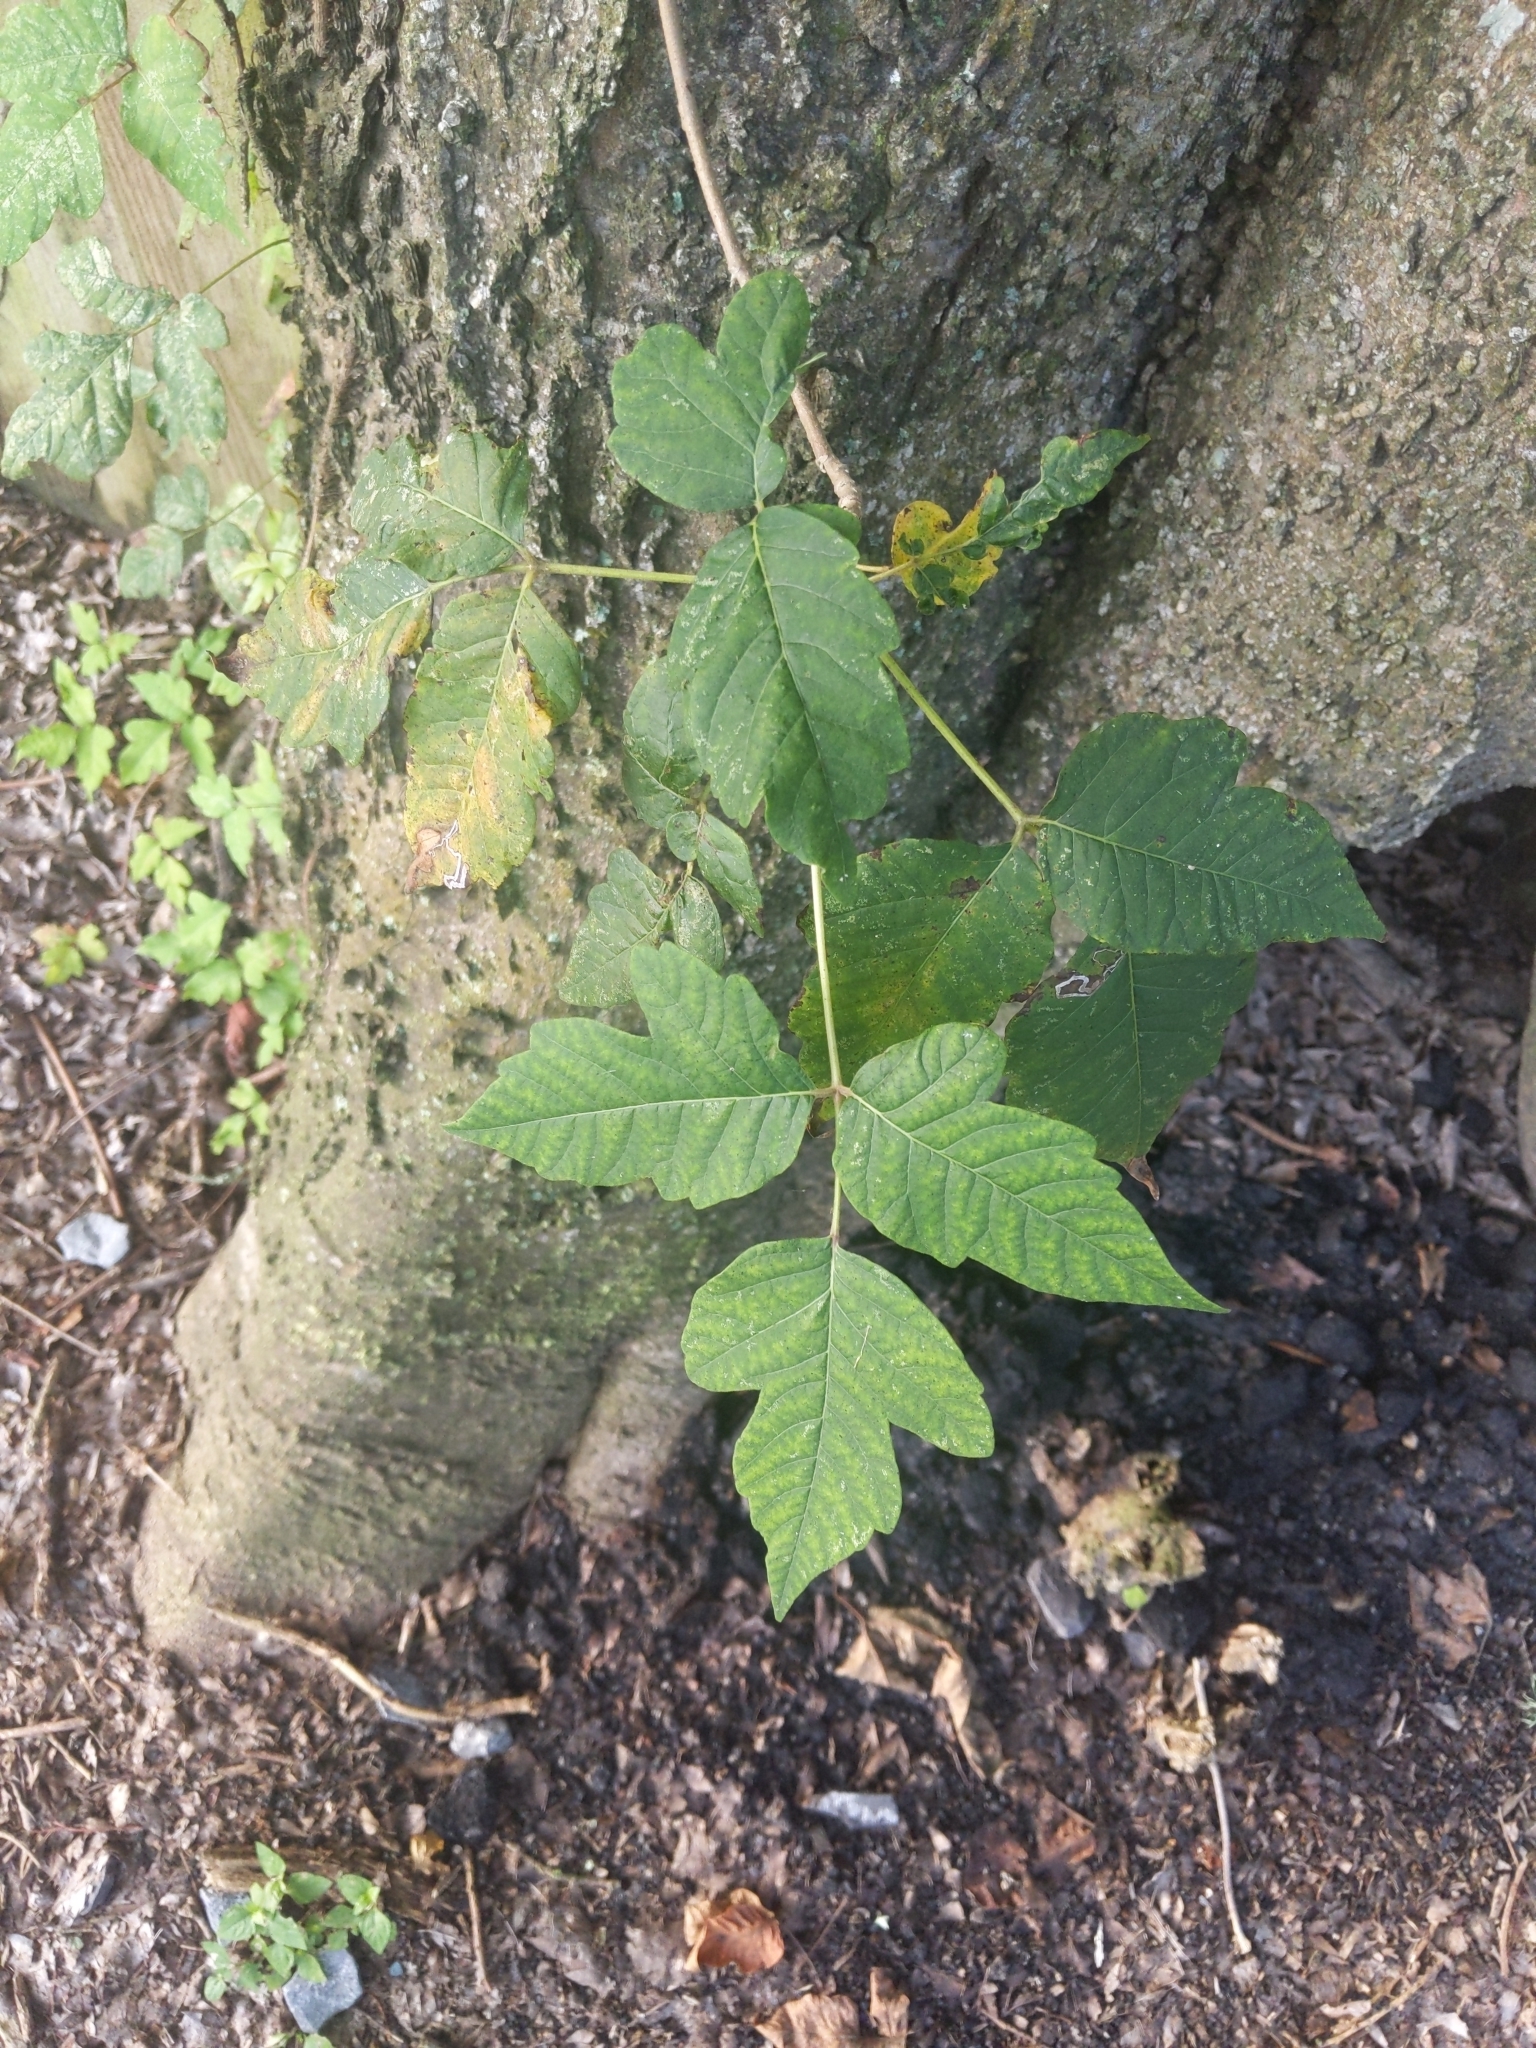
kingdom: Plantae
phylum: Tracheophyta
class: Magnoliopsida
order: Sapindales
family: Anacardiaceae
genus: Toxicodendron
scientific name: Toxicodendron radicans
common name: Poison ivy
